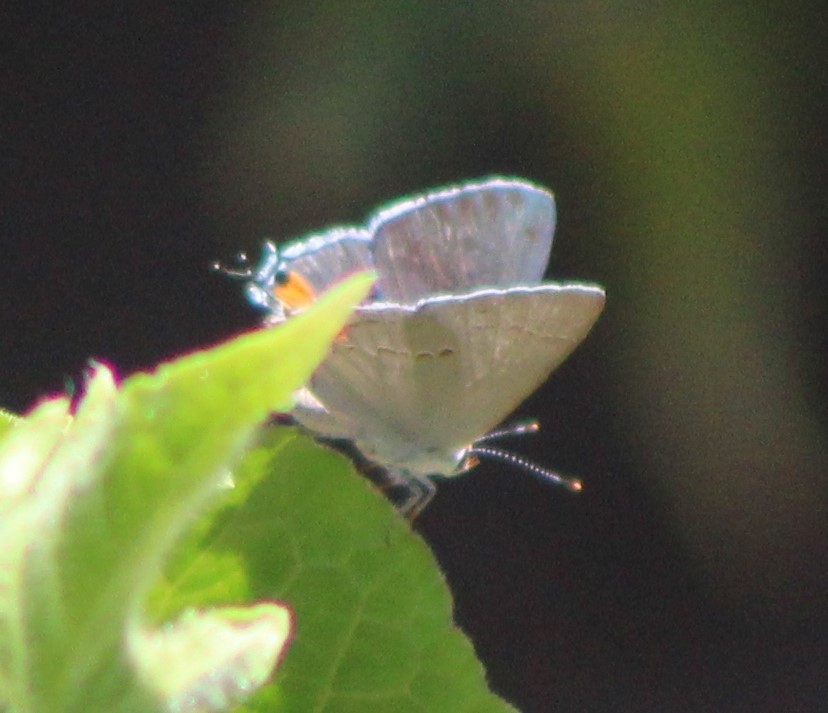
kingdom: Animalia
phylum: Arthropoda
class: Insecta
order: Lepidoptera
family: Lycaenidae
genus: Strymon
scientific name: Strymon melinus
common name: Gray hairstreak
